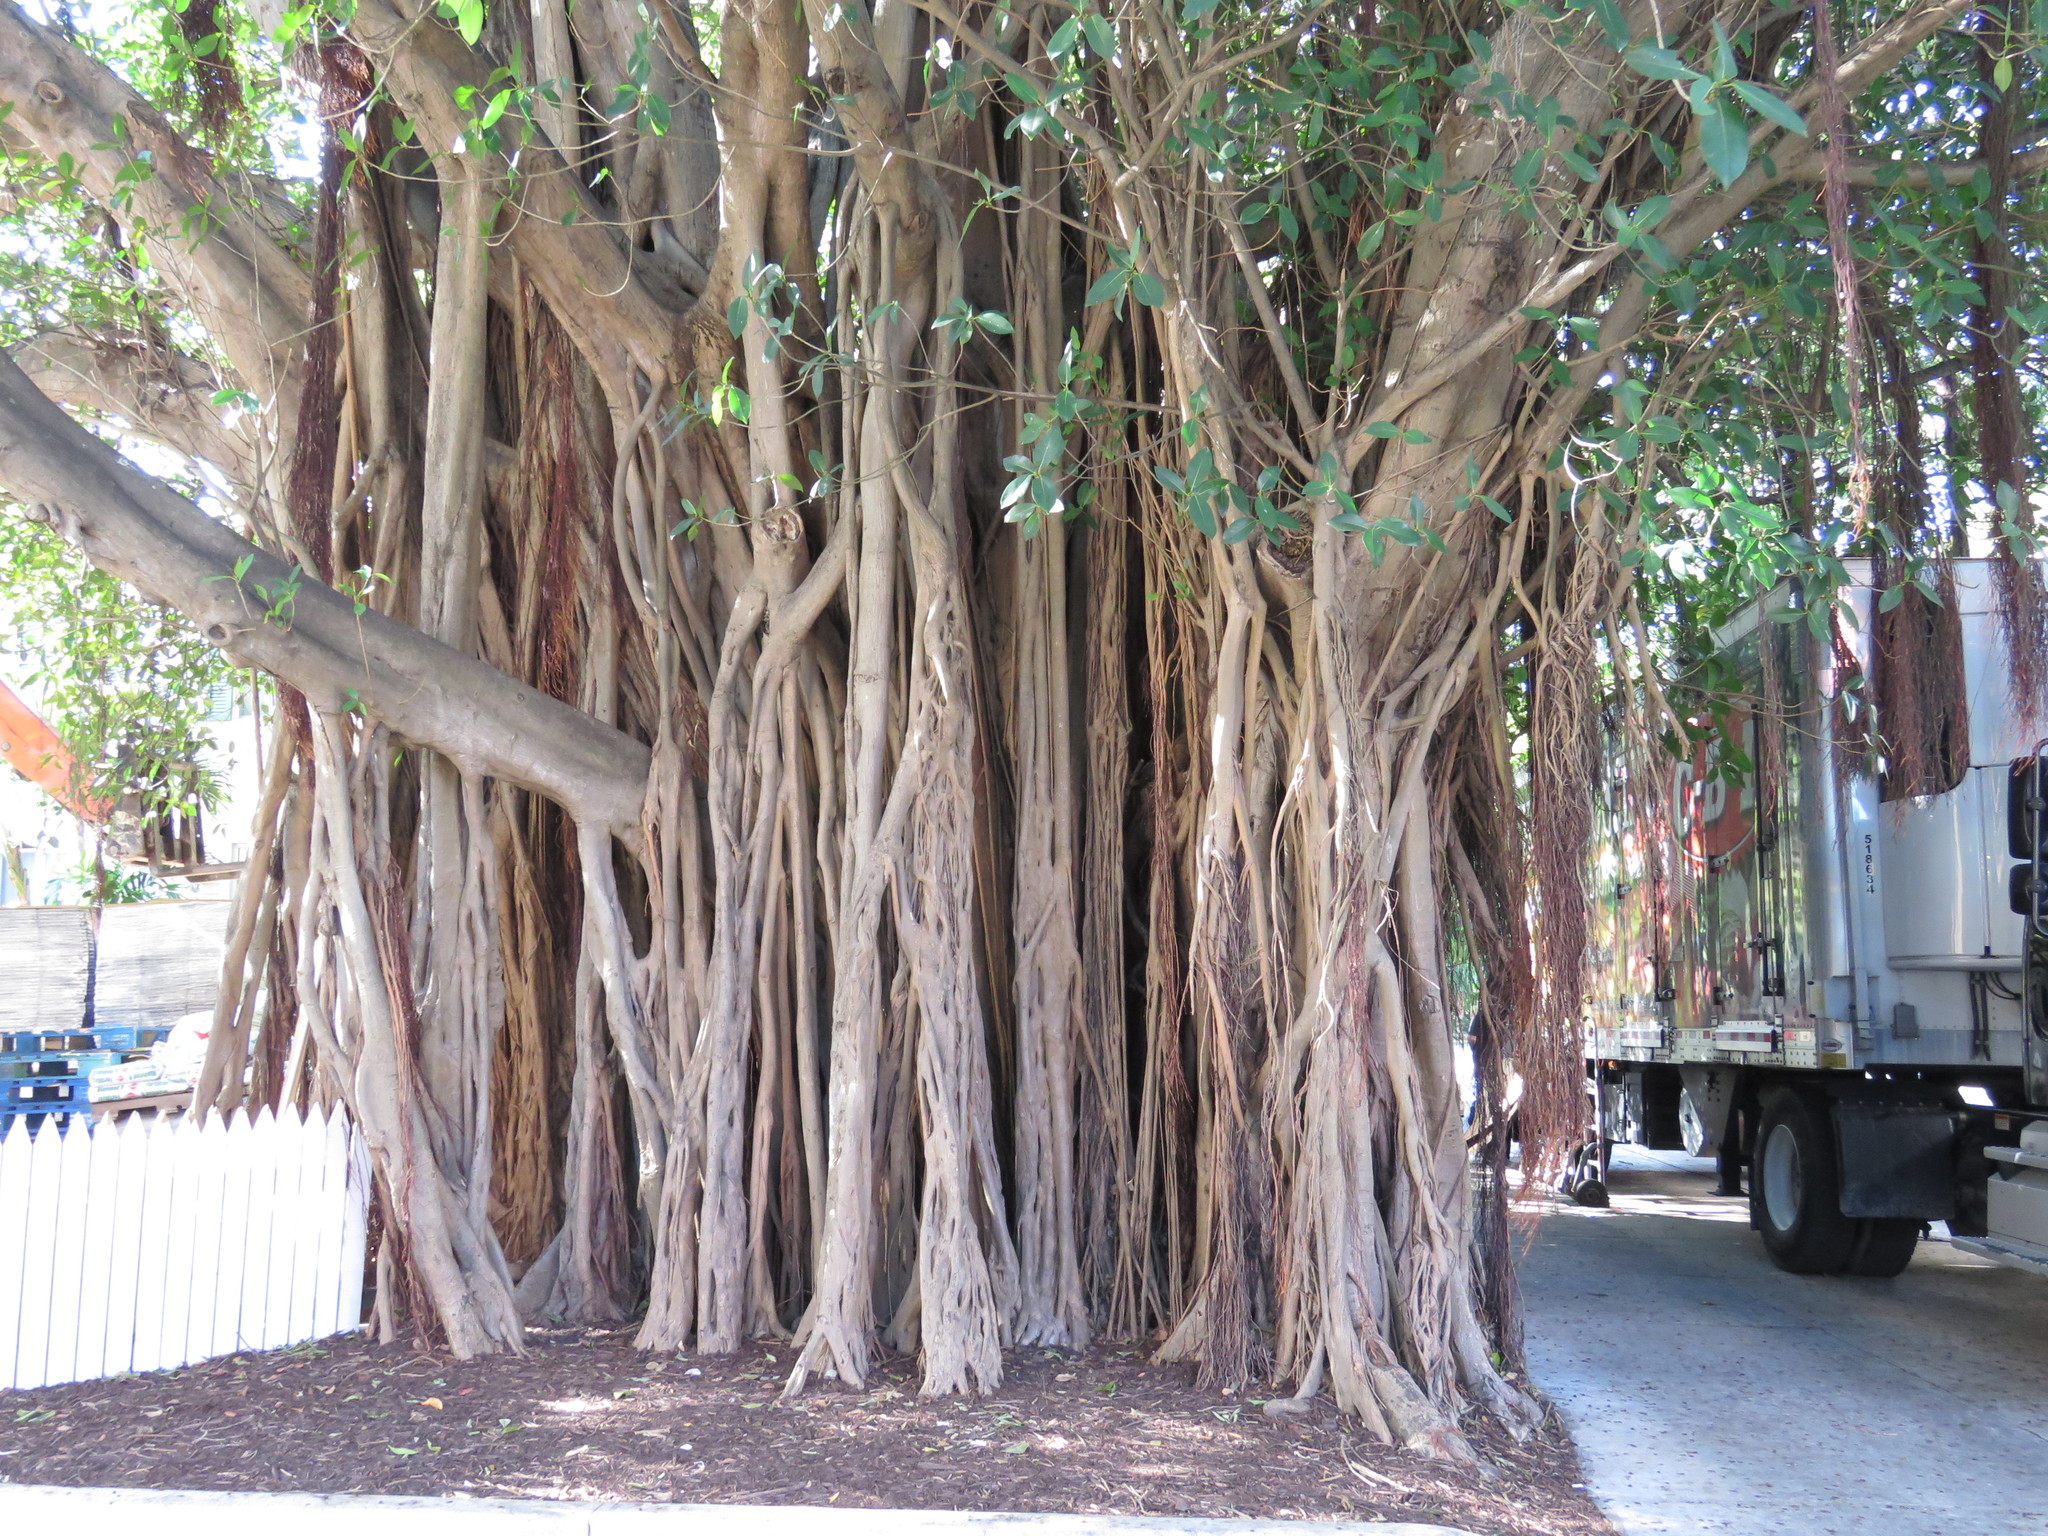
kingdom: Plantae
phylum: Tracheophyta
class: Magnoliopsida
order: Rosales
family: Moraceae
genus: Ficus
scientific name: Ficus aurea
